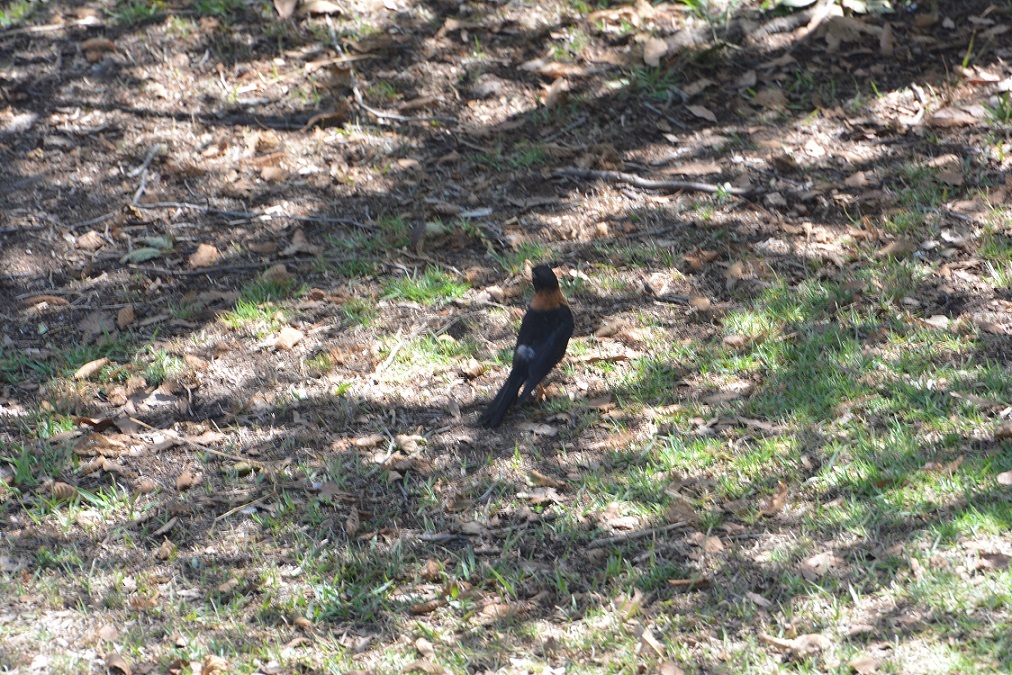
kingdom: Animalia
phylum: Chordata
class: Aves
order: Passeriformes
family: Turdidae
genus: Turdus
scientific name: Turdus rufitorques
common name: Rufous-collared thrush
